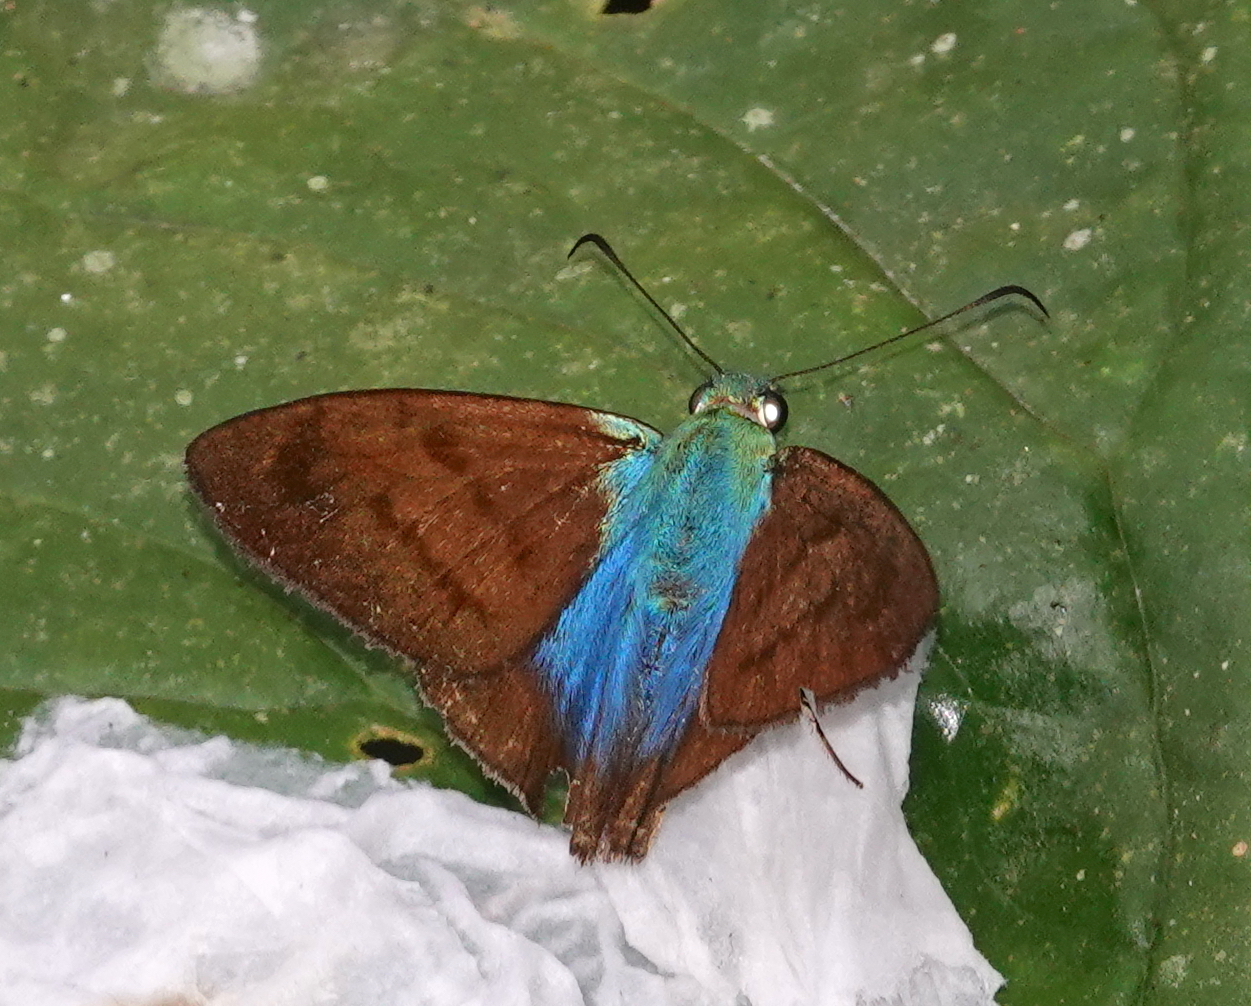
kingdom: Animalia
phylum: Arthropoda
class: Insecta
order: Lepidoptera
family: Hesperiidae
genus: Astraptes
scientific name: Astraptes chiriquensis
